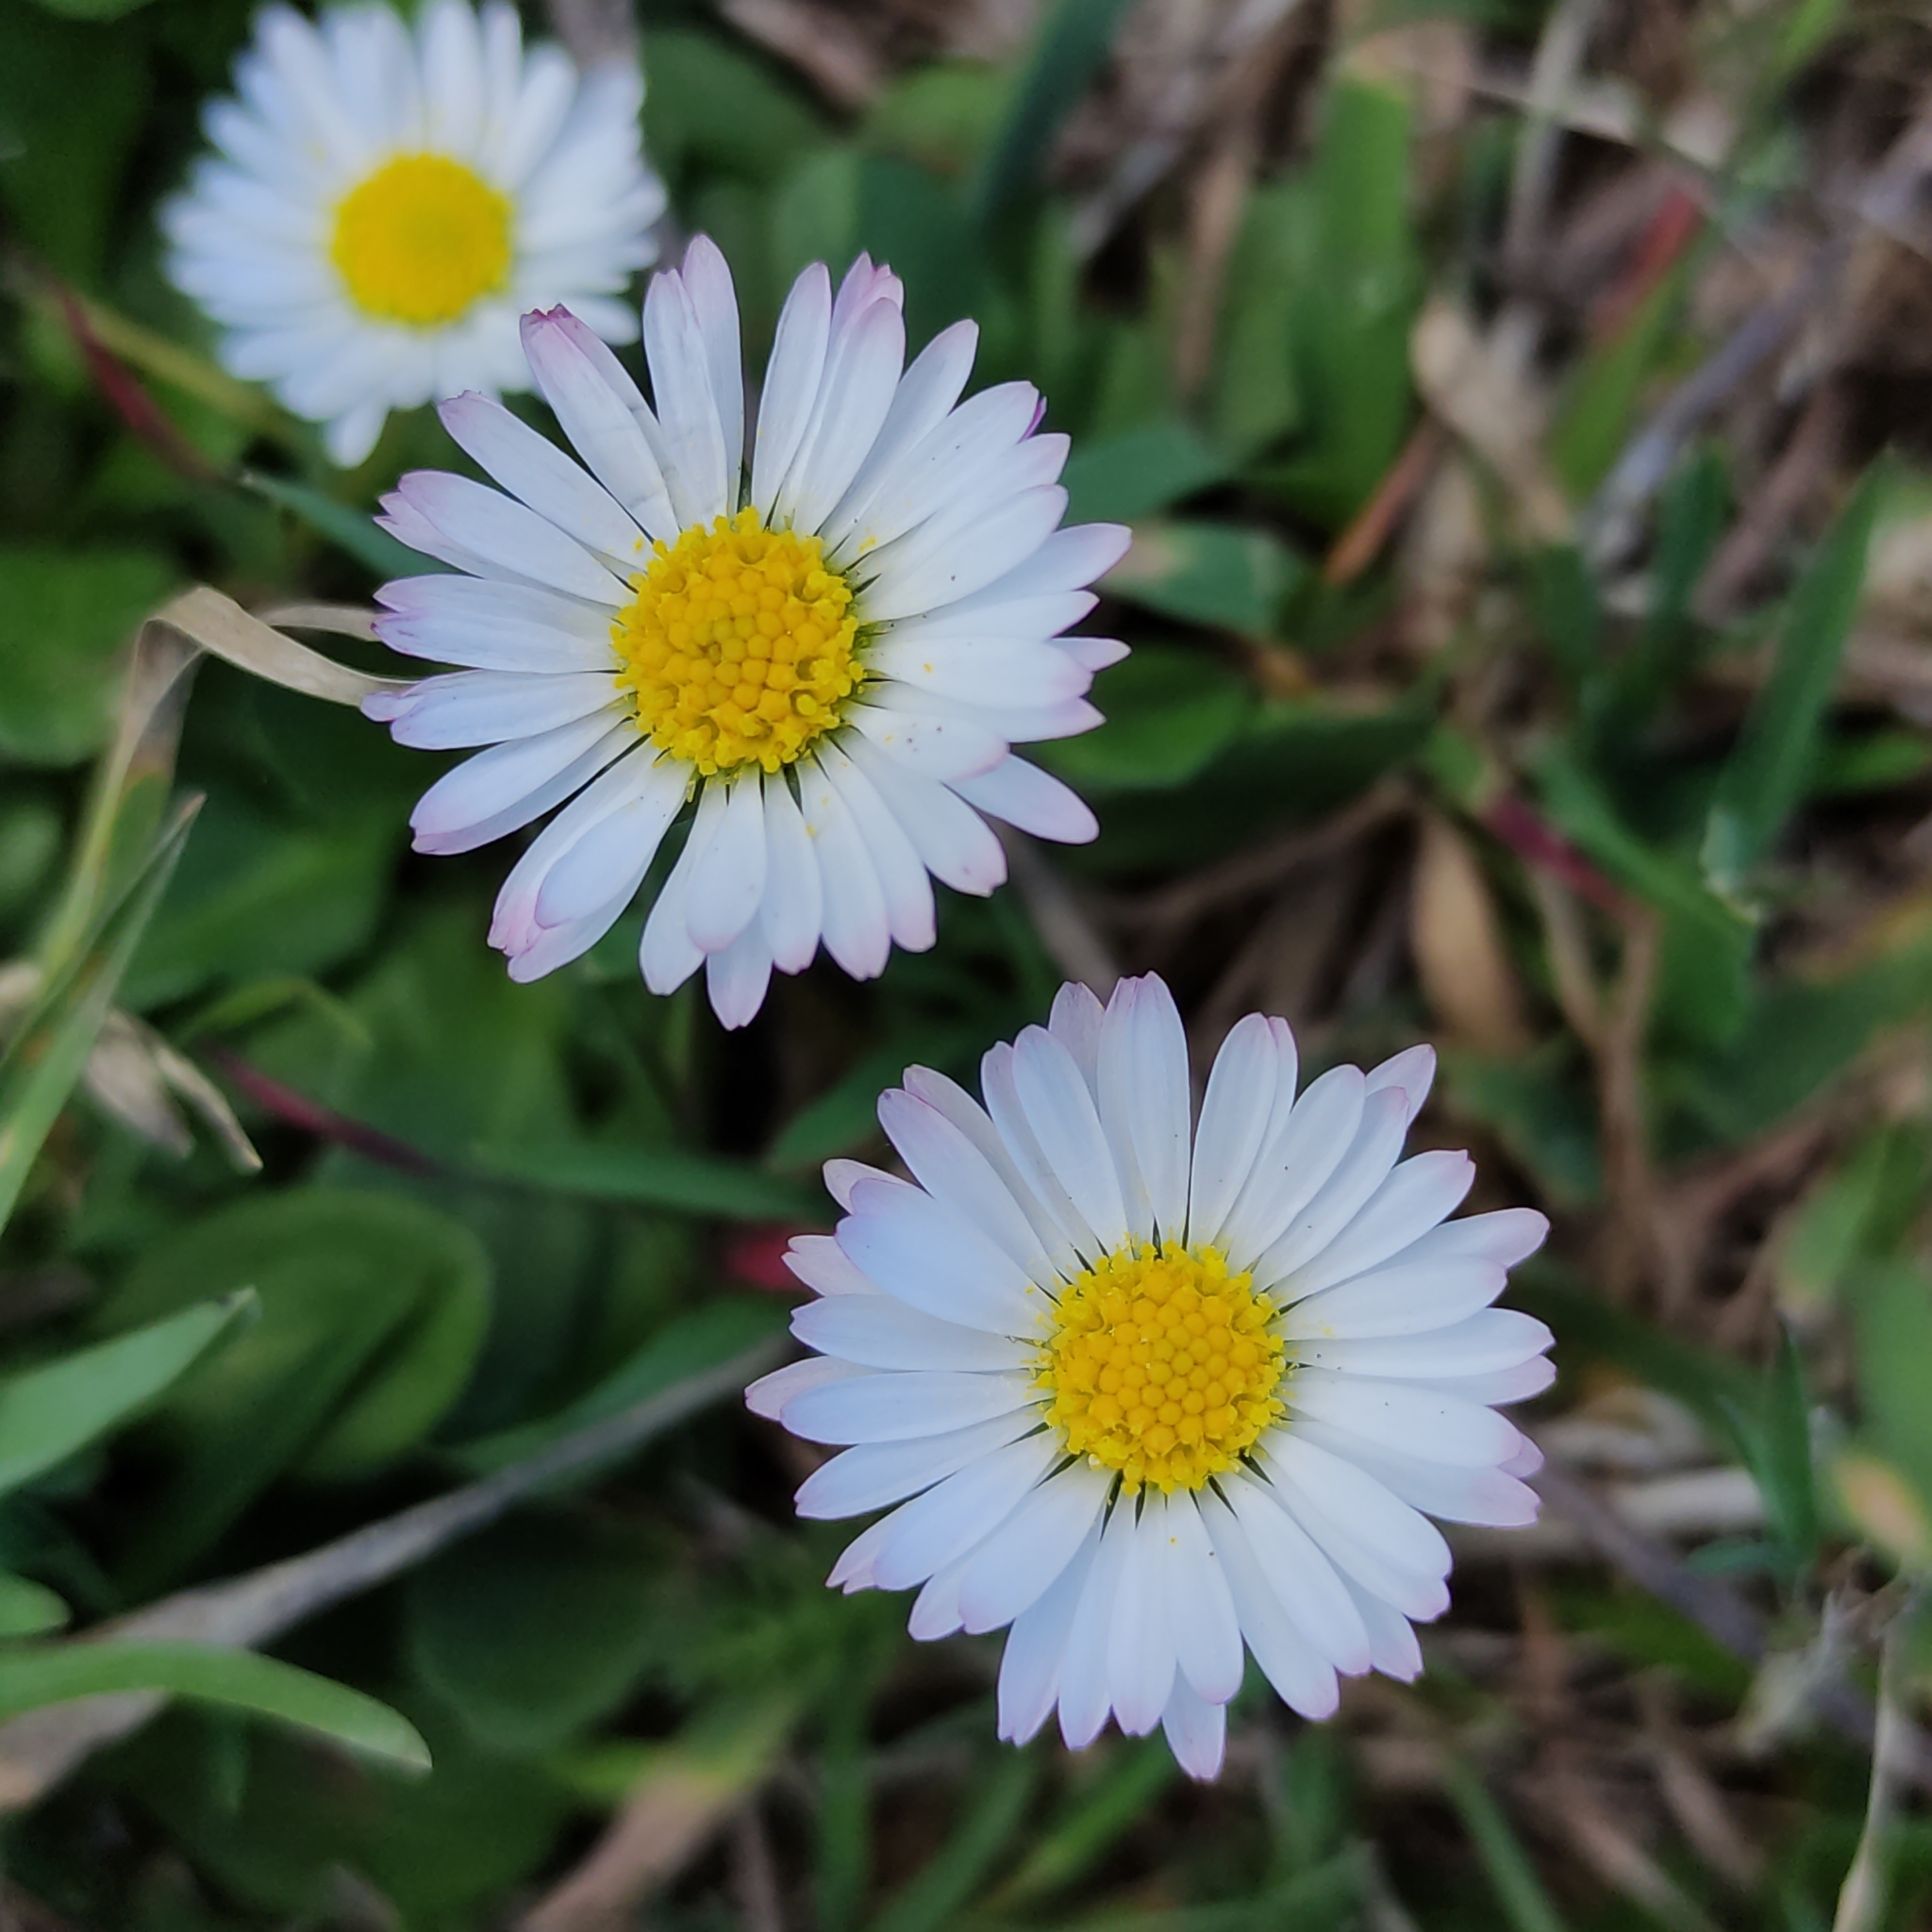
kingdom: Plantae
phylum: Tracheophyta
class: Magnoliopsida
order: Asterales
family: Asteraceae
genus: Bellis
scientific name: Bellis perennis
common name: Lawndaisy
